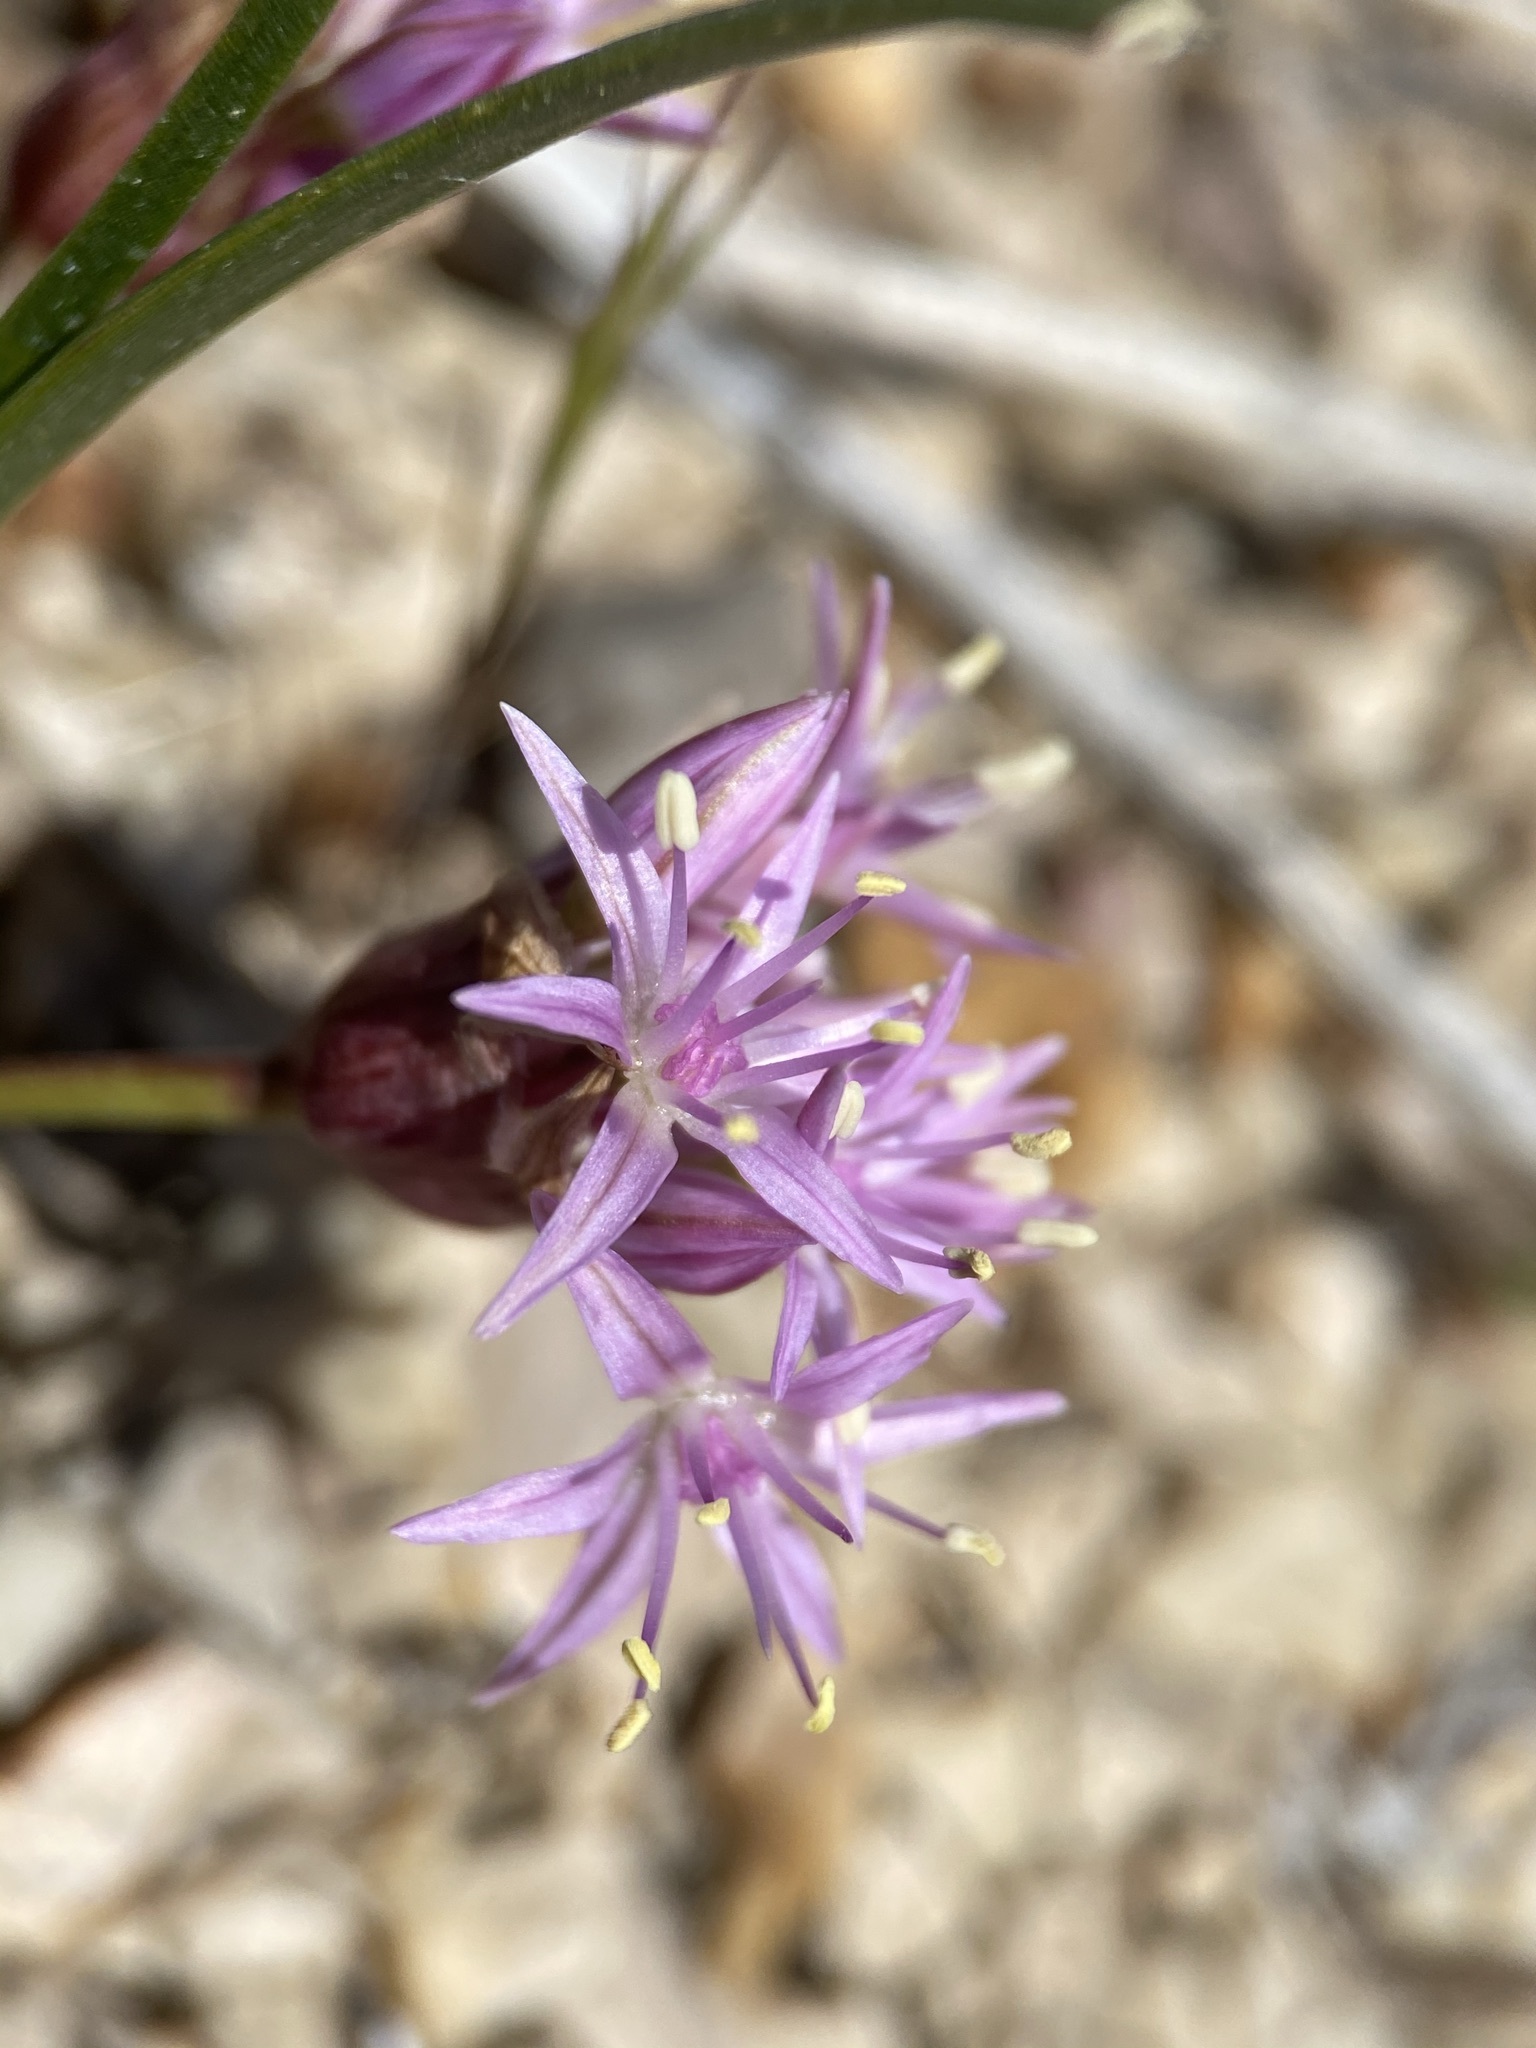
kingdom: Plantae
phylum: Tracheophyta
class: Liliopsida
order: Asparagales
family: Amaryllidaceae
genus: Allium
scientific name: Allium anceps
